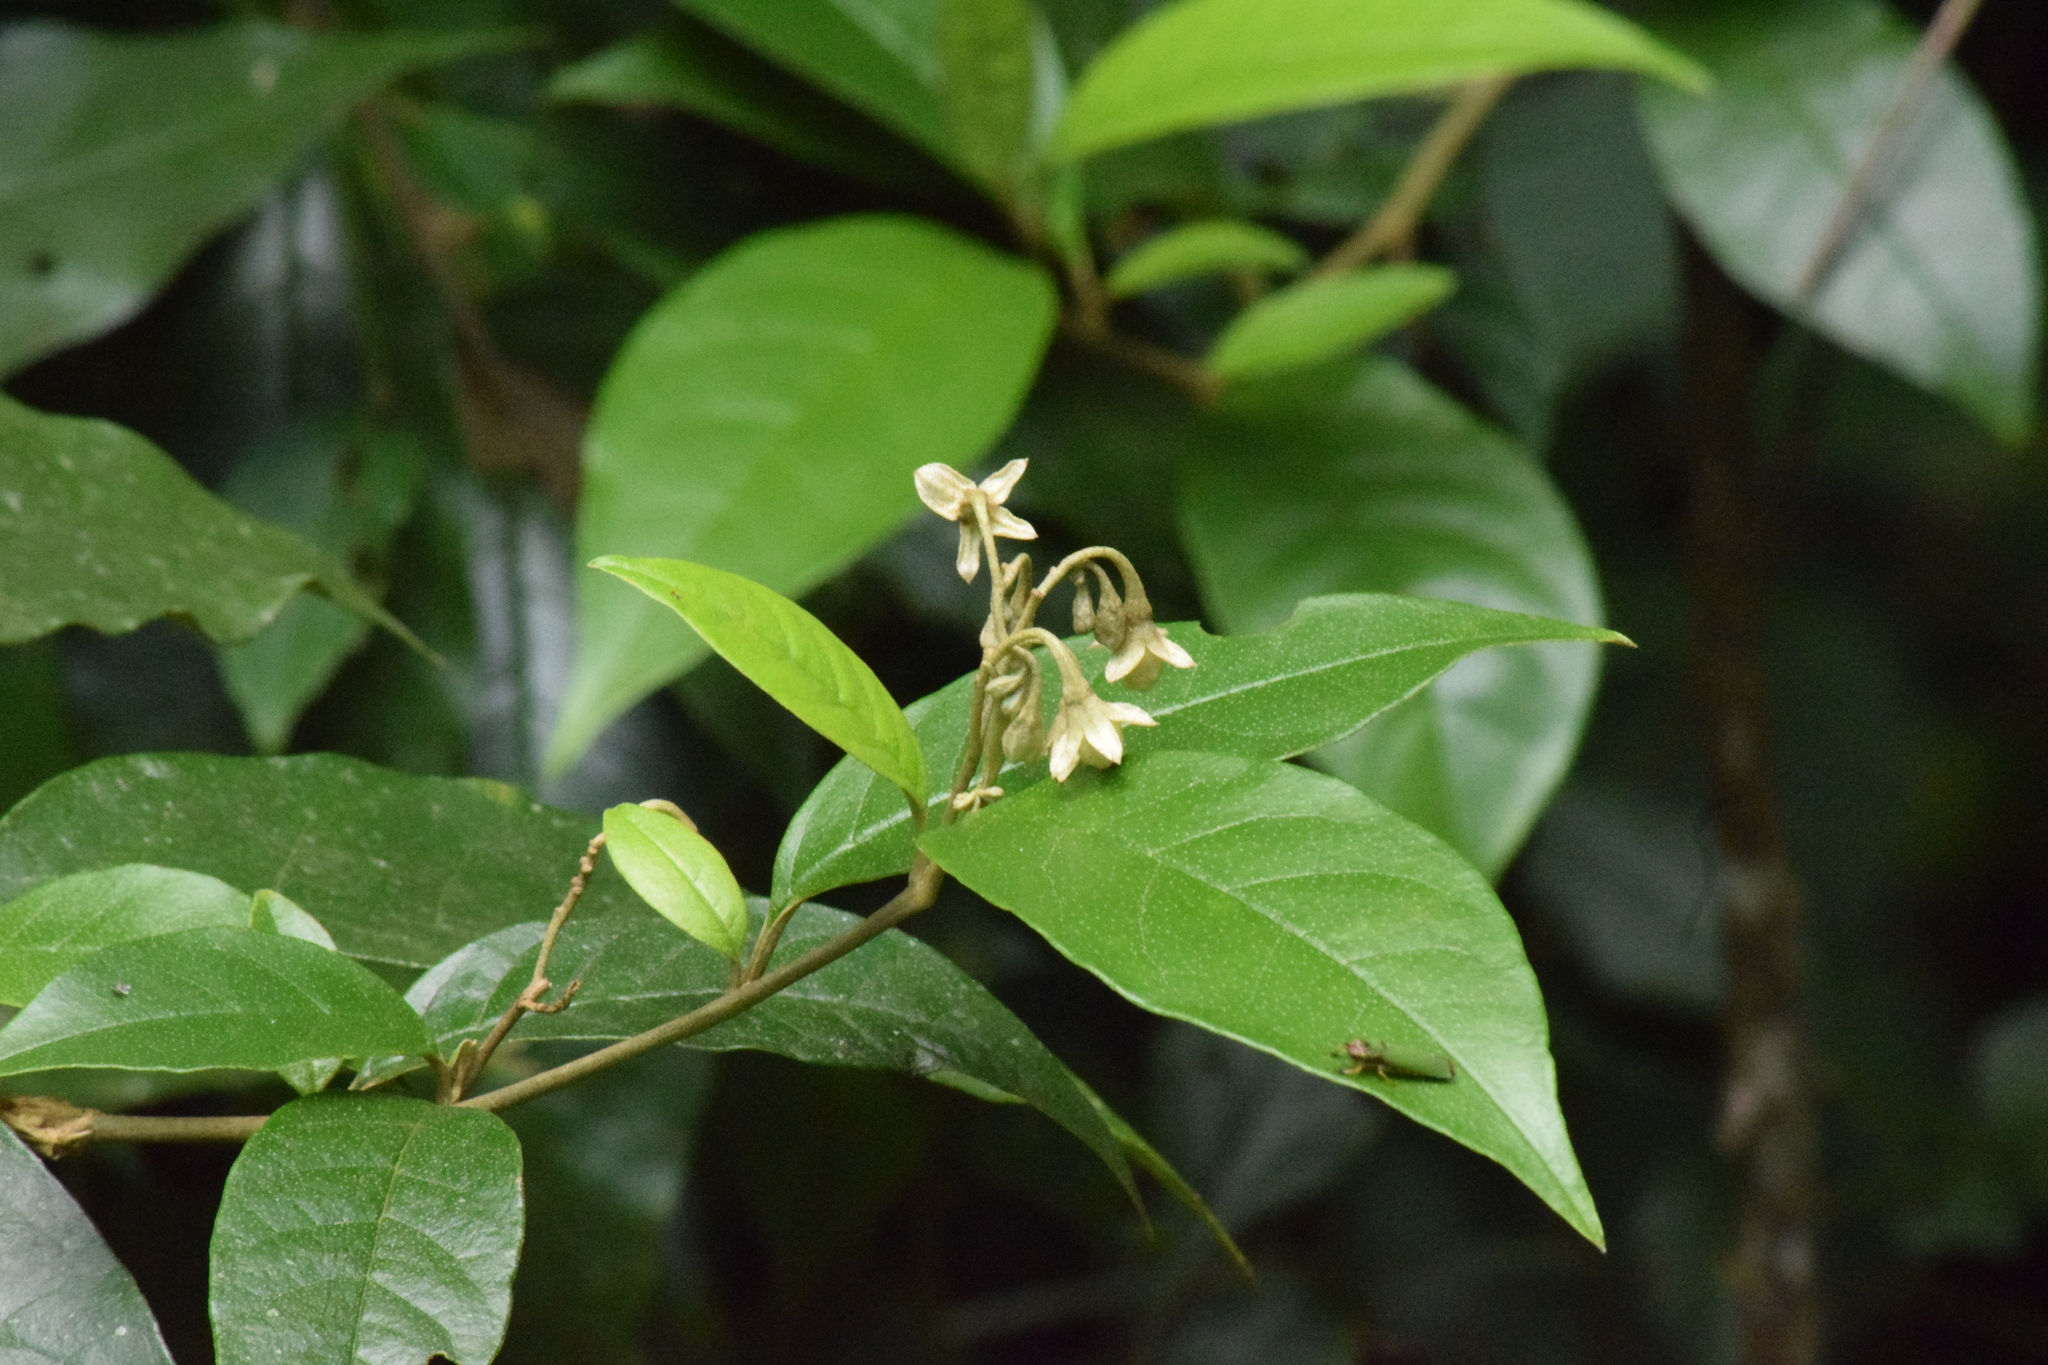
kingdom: Plantae
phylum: Tracheophyta
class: Magnoliopsida
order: Solanales
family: Solanaceae
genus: Solanum
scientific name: Solanum swartzianum
